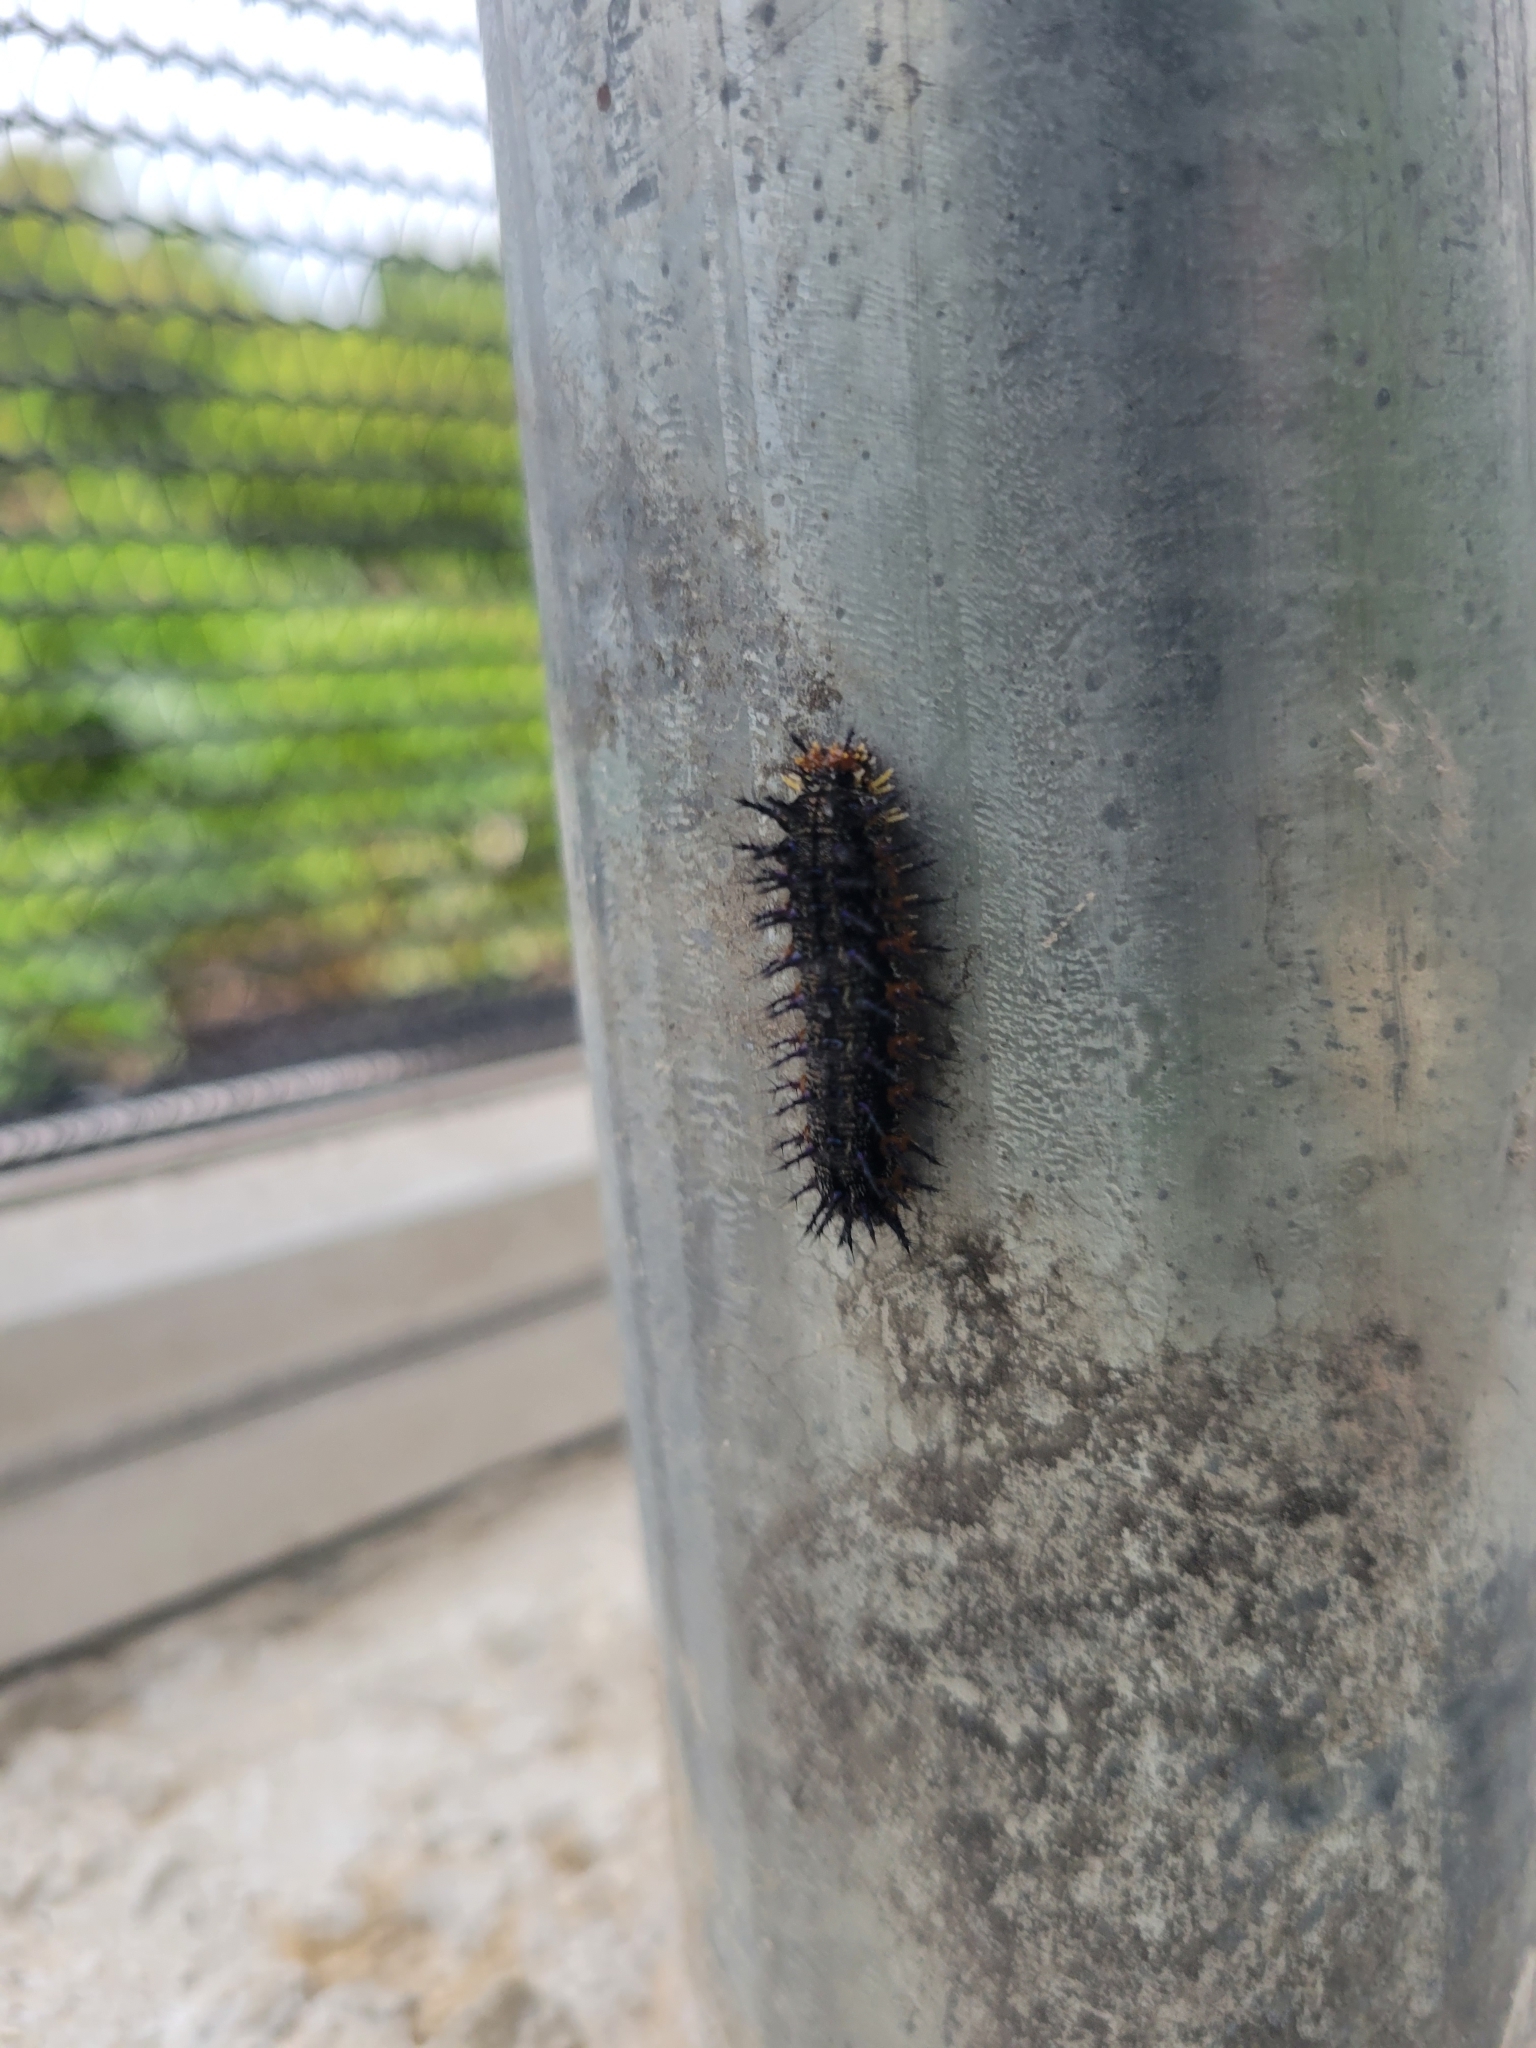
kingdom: Animalia
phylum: Arthropoda
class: Insecta
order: Lepidoptera
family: Nymphalidae
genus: Junonia
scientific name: Junonia coenia
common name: Common buckeye
